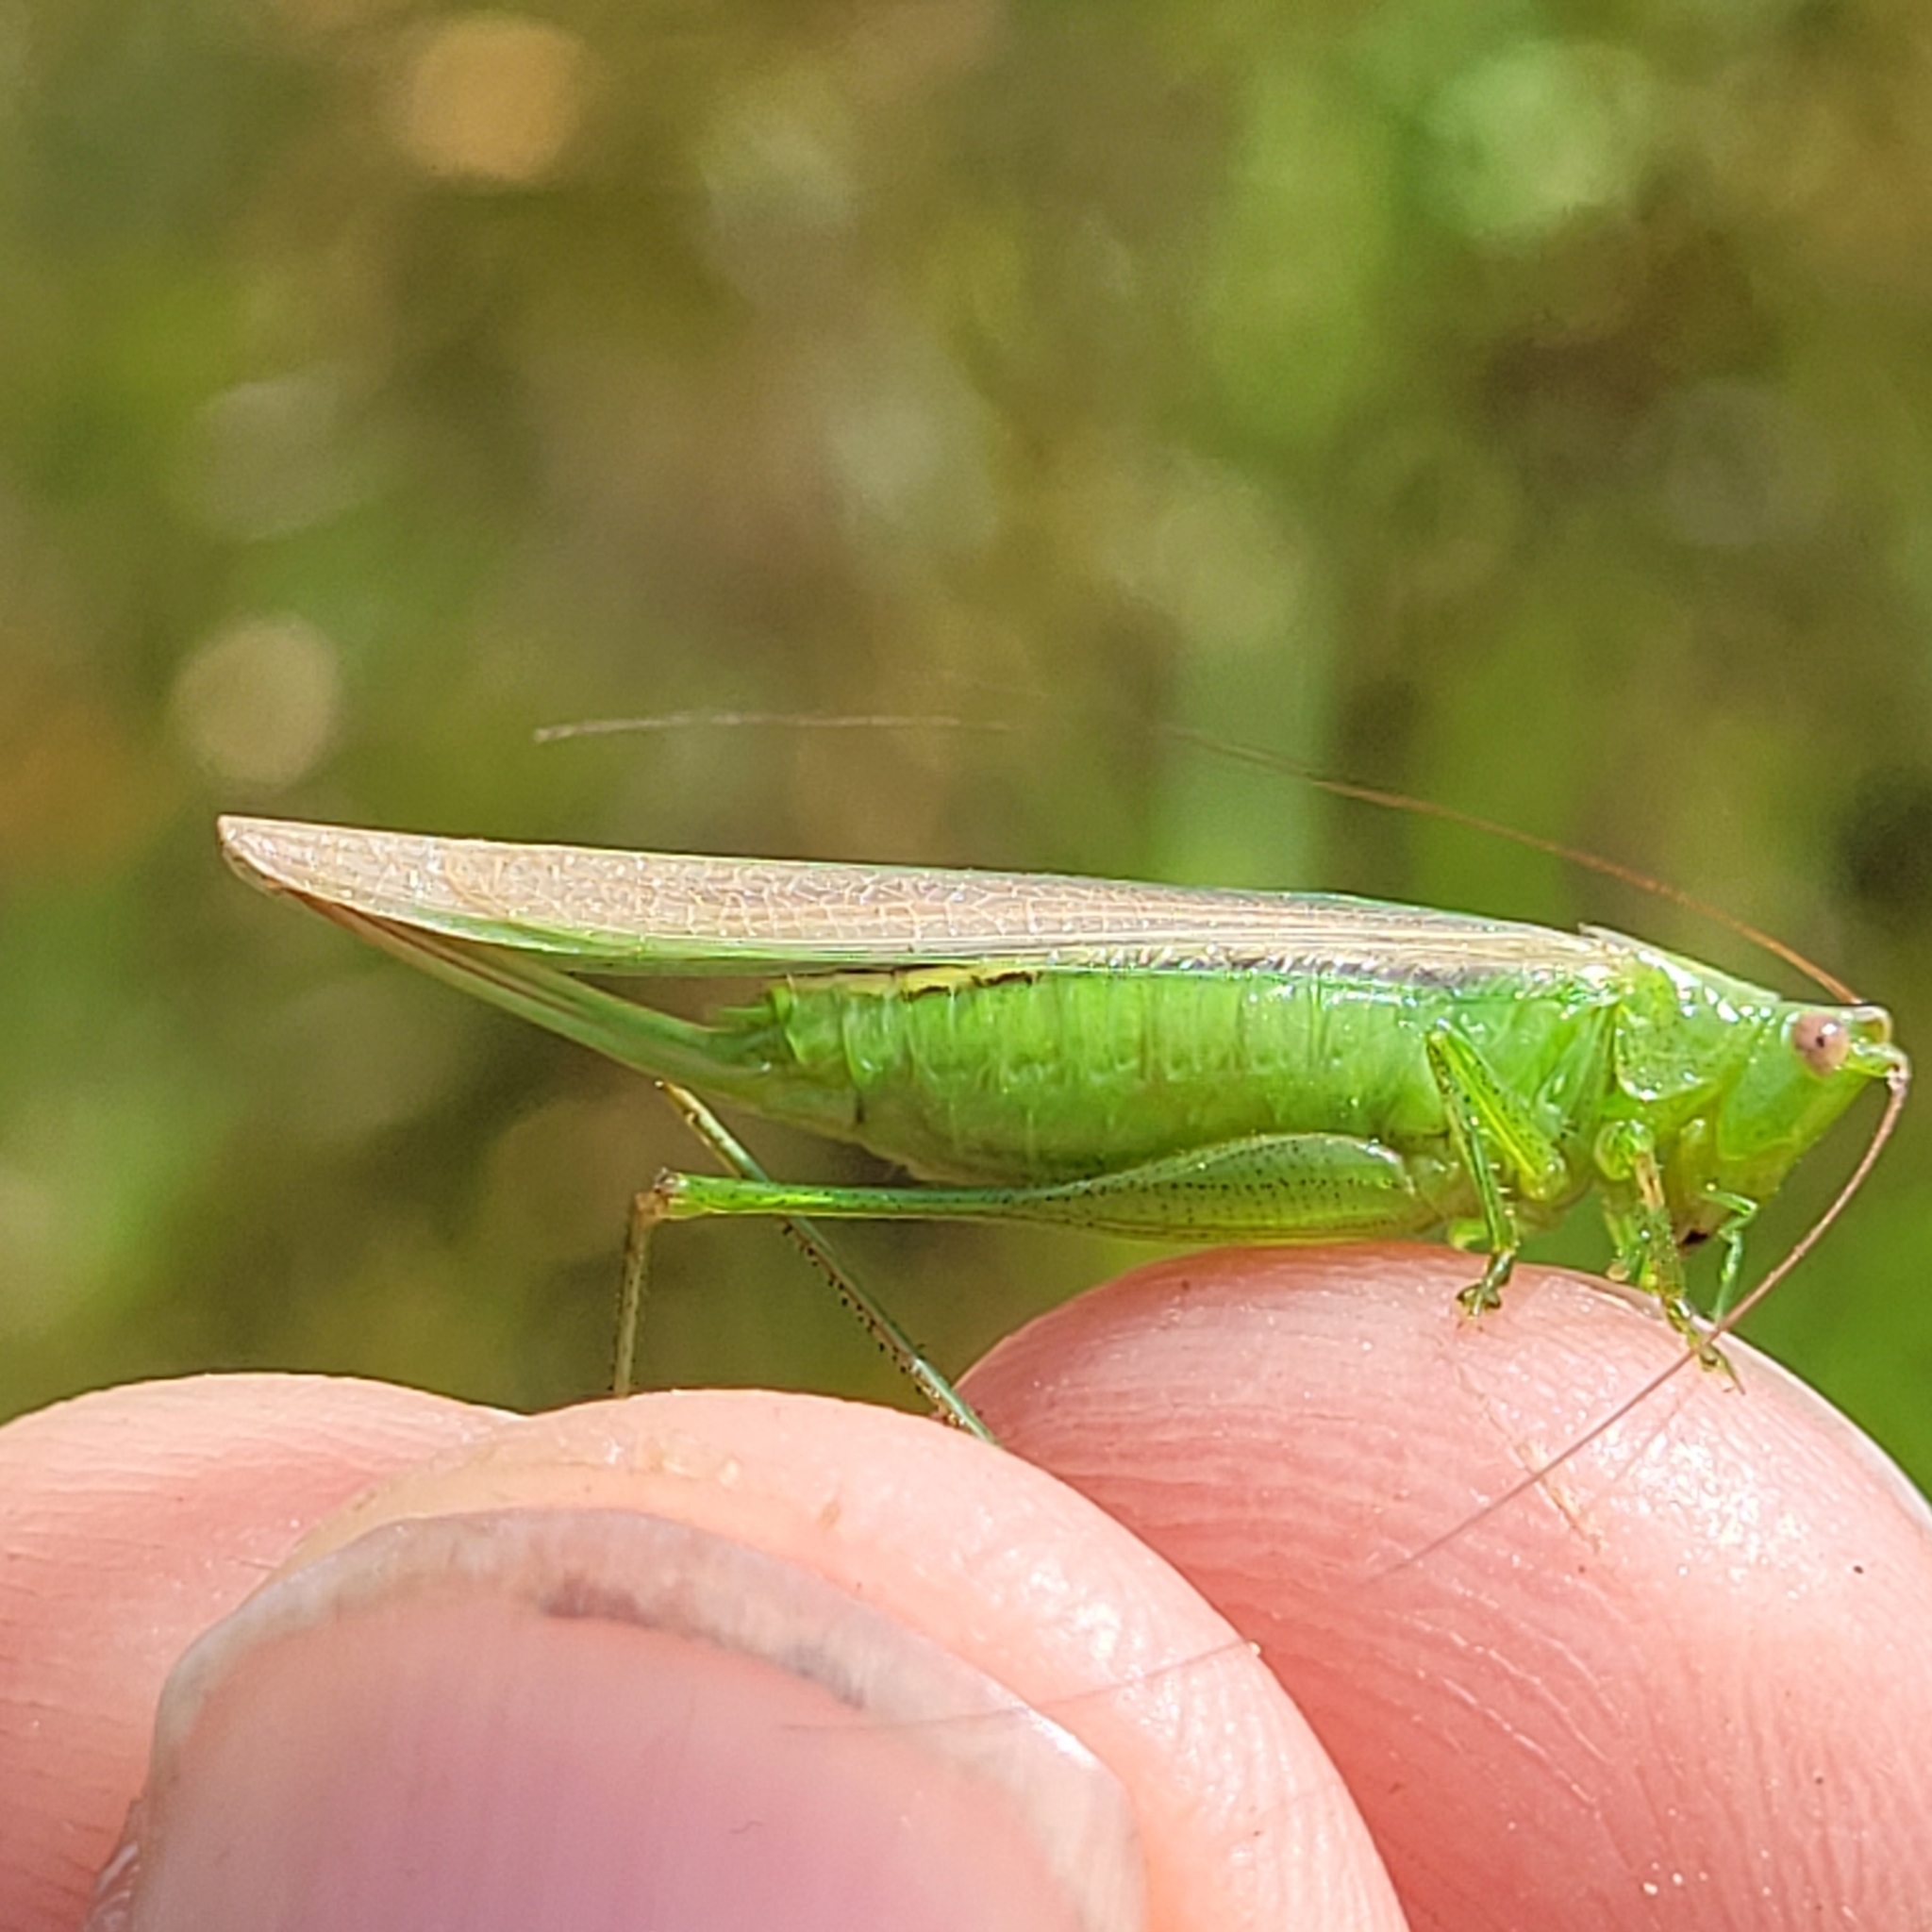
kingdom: Animalia
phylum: Arthropoda
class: Insecta
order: Orthoptera
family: Tettigoniidae
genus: Conocephalus
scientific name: Conocephalus fasciatus
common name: Slender meadow katydid
